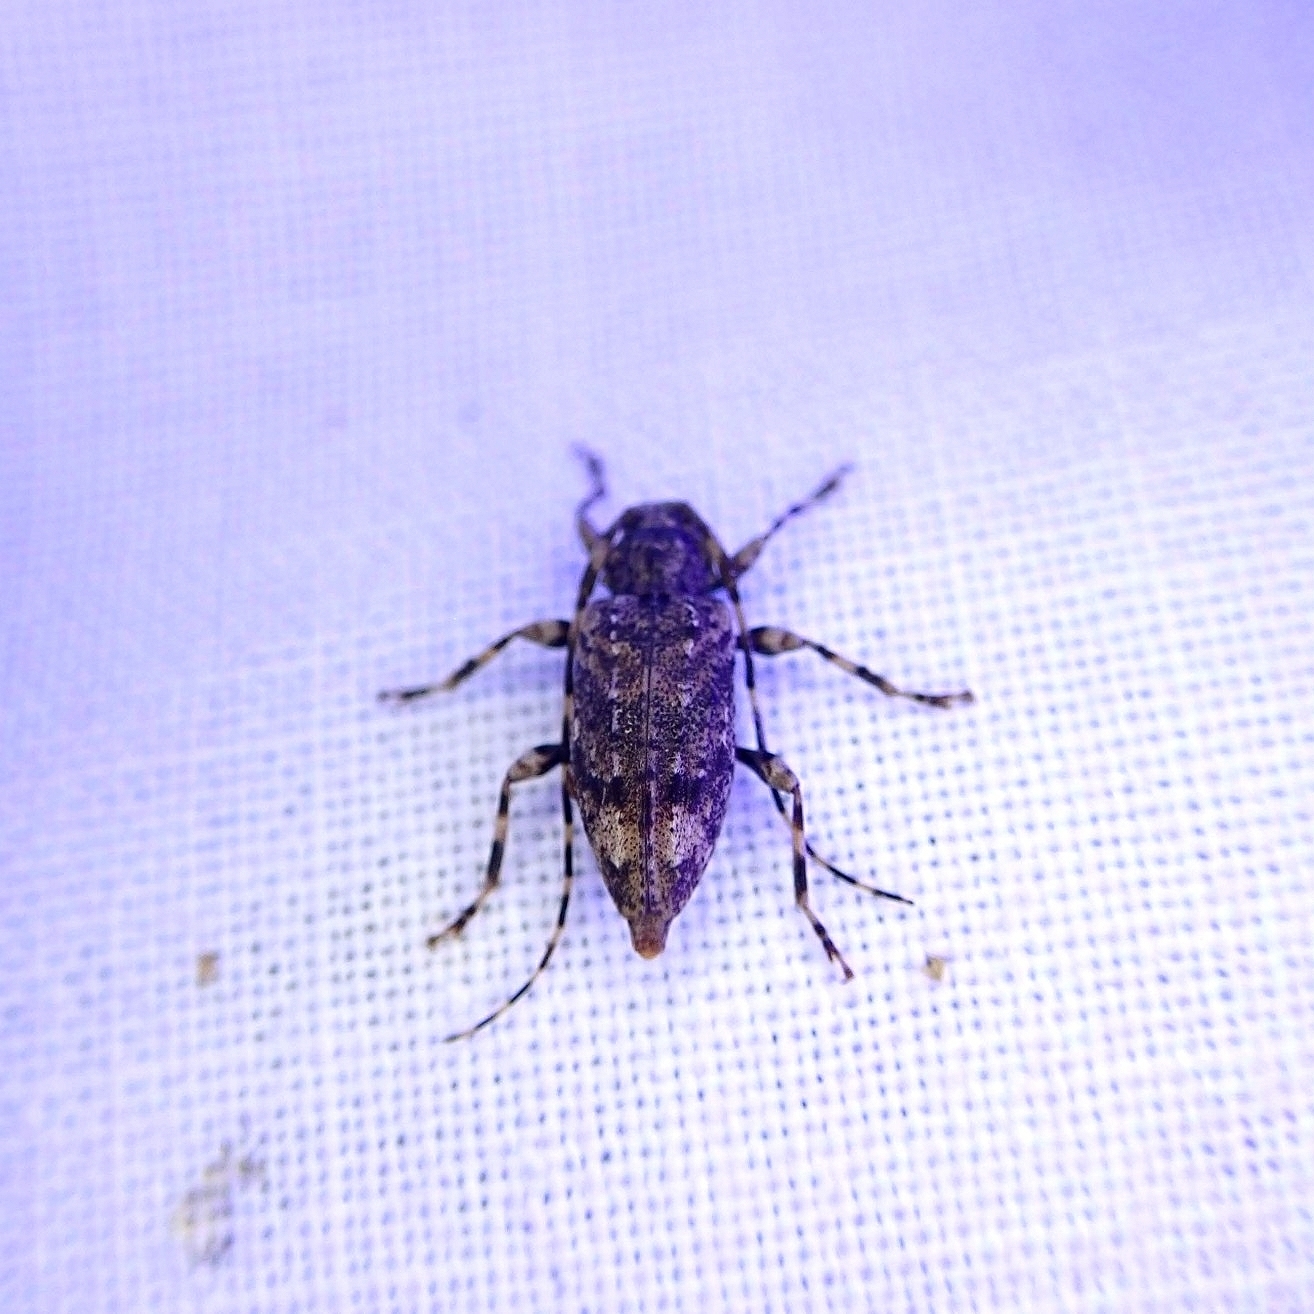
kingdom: Animalia
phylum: Arthropoda
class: Insecta
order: Coleoptera
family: Cerambycidae
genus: Astyleiopus
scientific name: Astyleiopus variegatus
